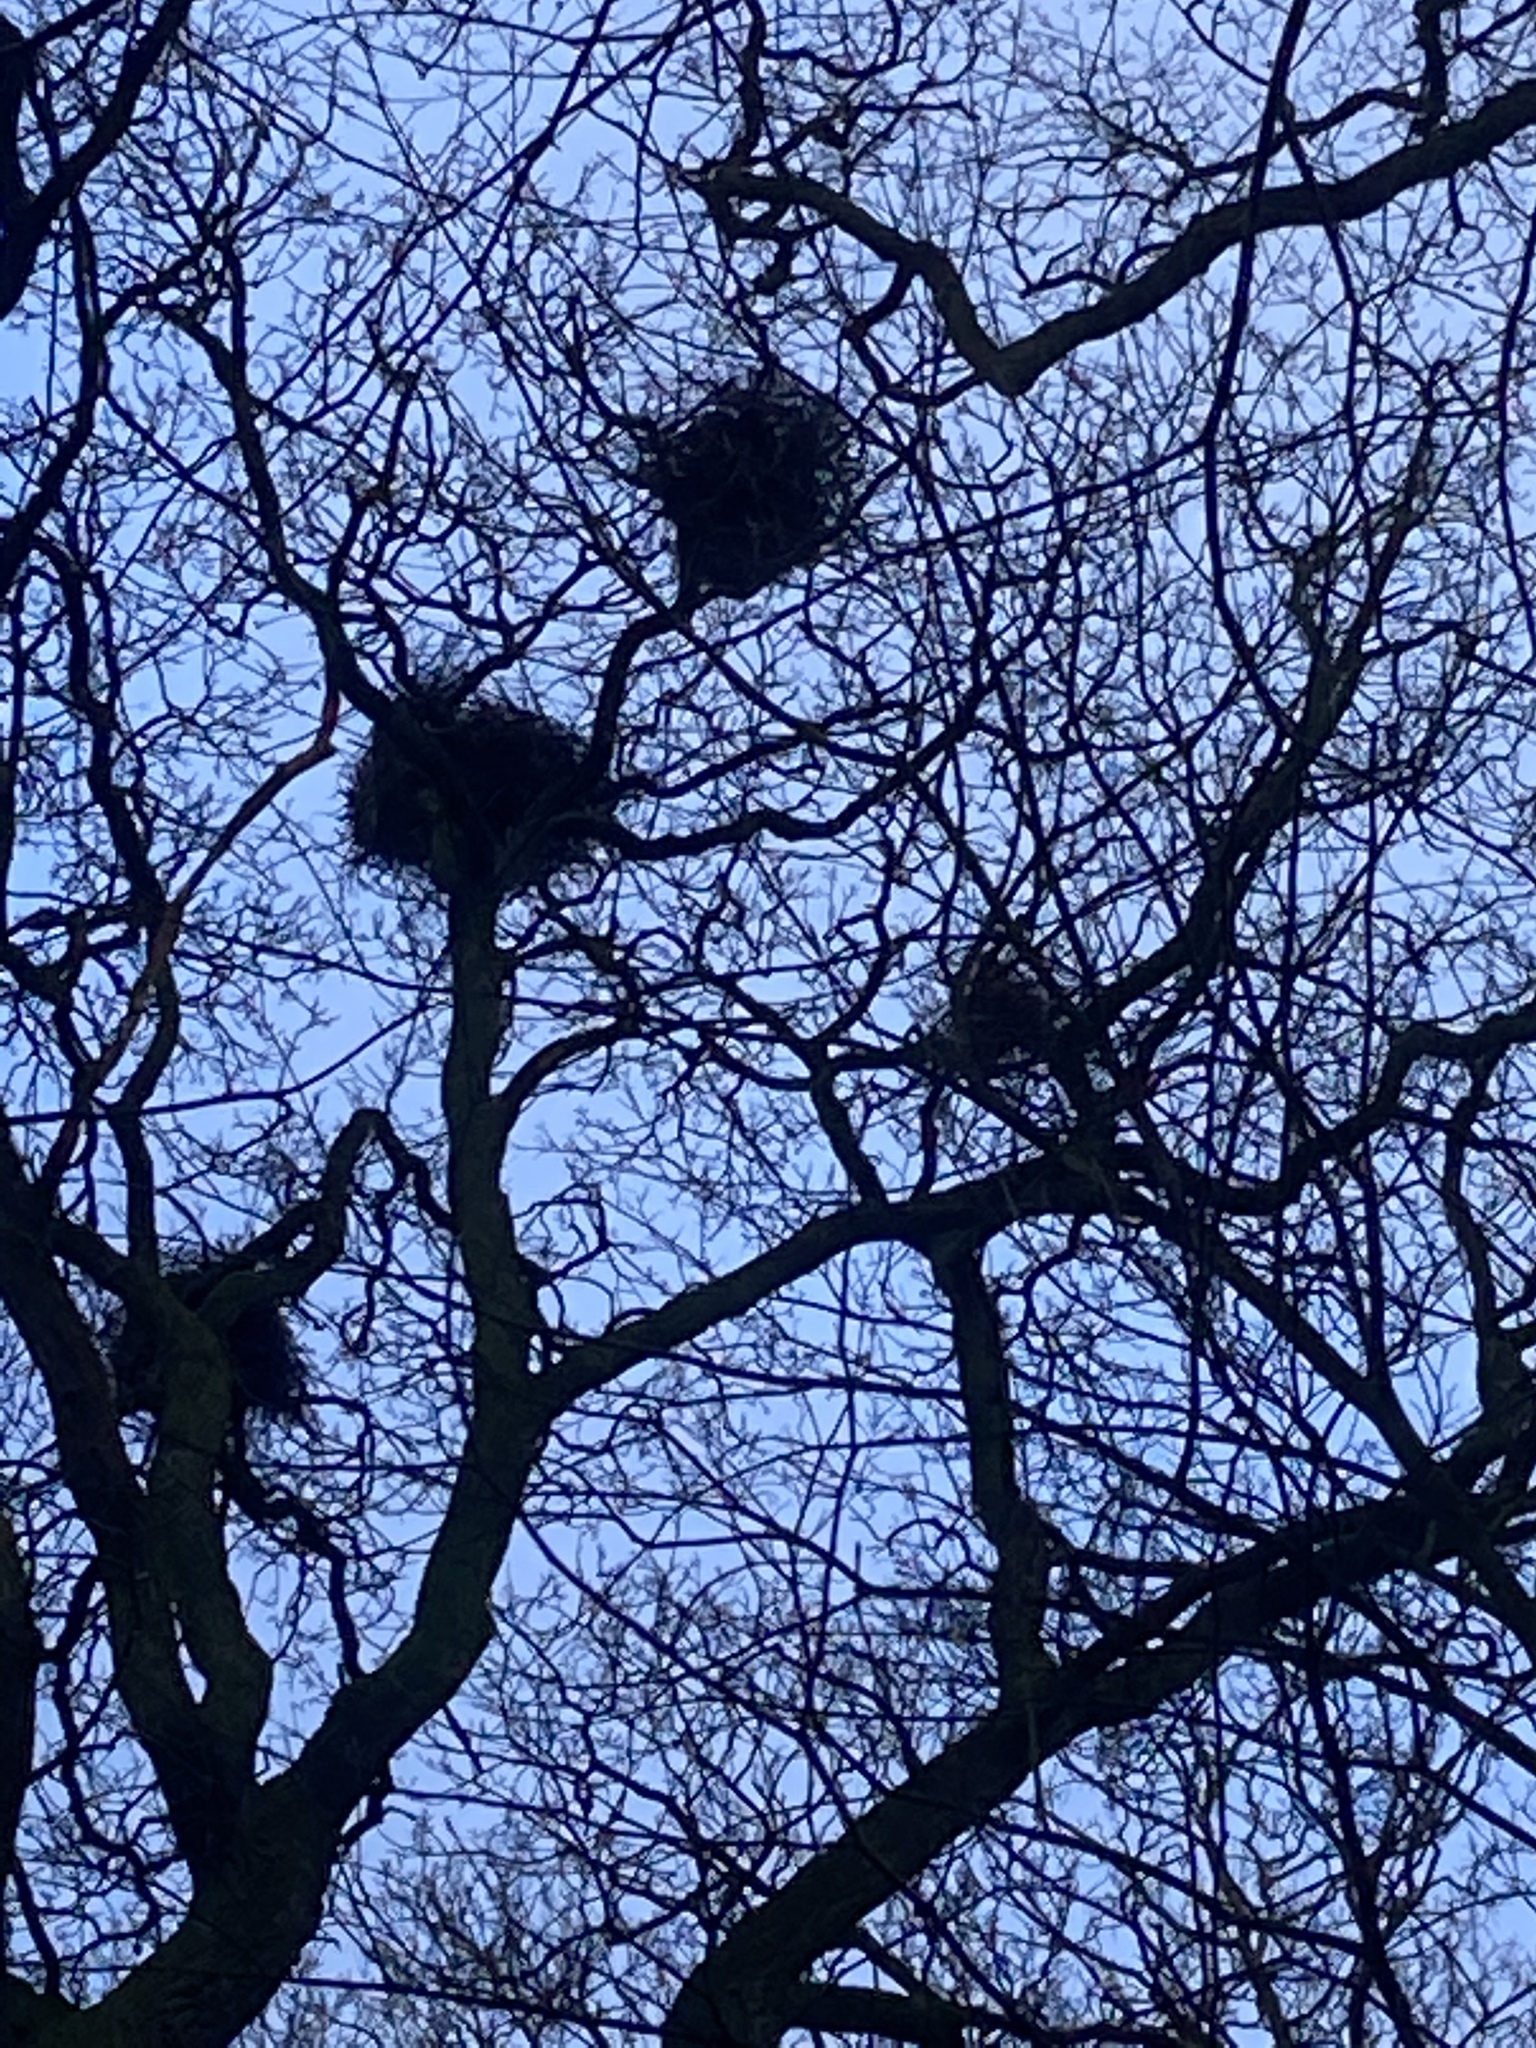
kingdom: Animalia
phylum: Chordata
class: Aves
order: Pelecaniformes
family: Ardeidae
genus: Ardea
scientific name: Ardea cinerea
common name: Grey heron
